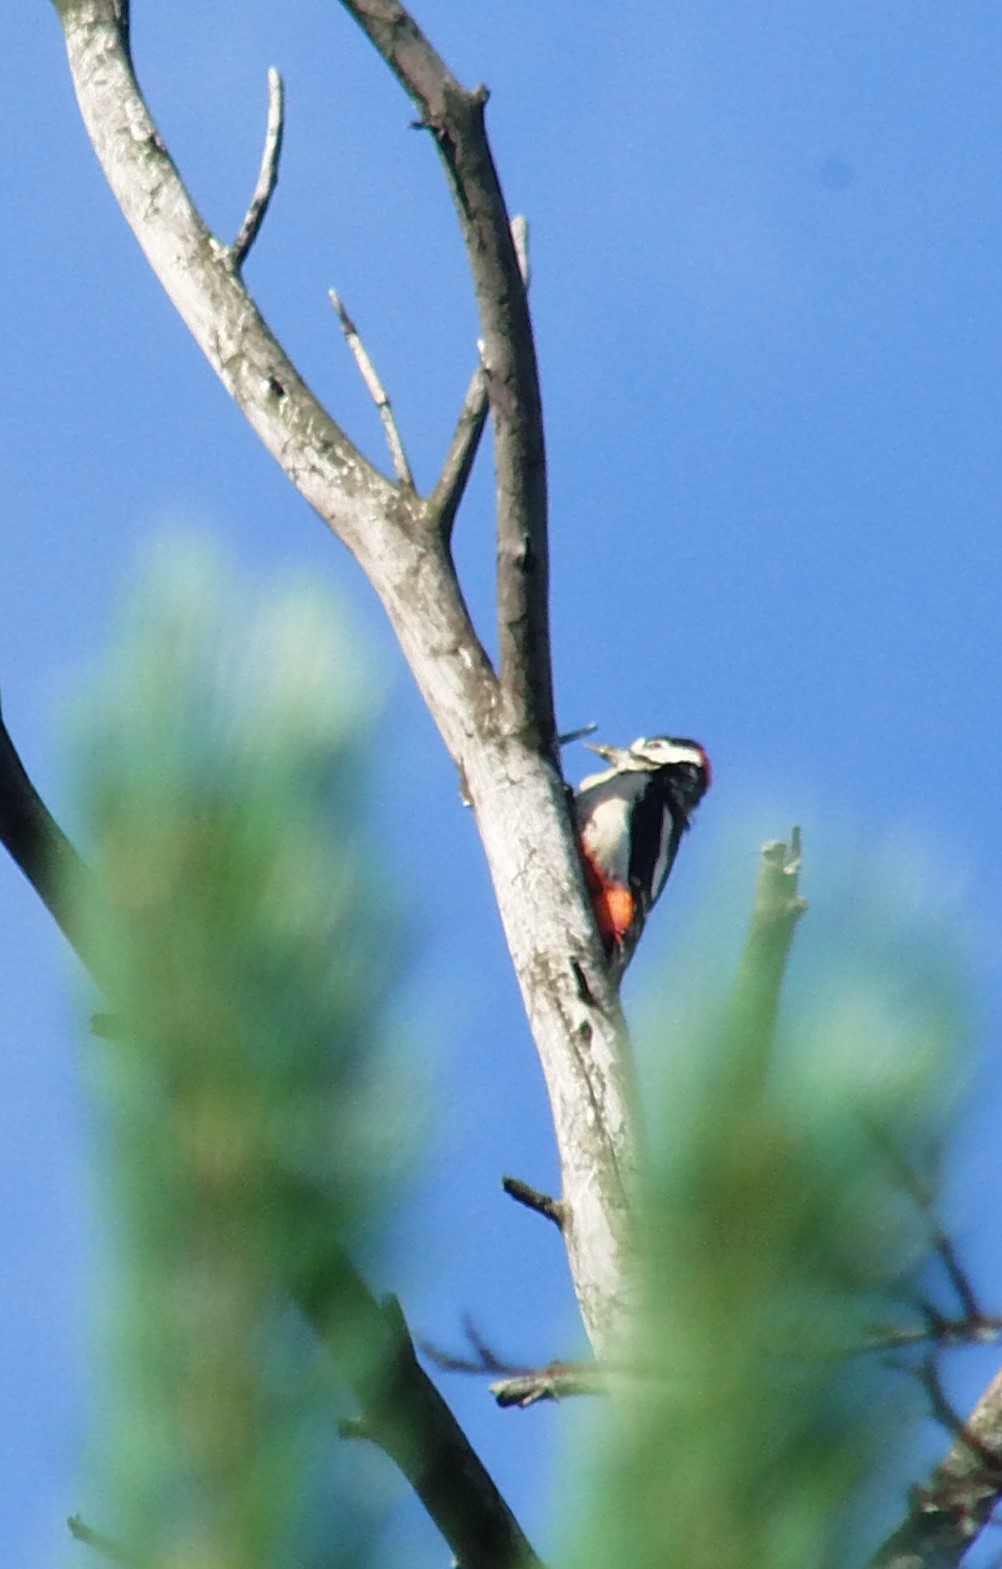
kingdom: Animalia
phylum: Chordata
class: Aves
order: Piciformes
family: Picidae
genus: Dendrocopos
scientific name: Dendrocopos major
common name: Great spotted woodpecker
